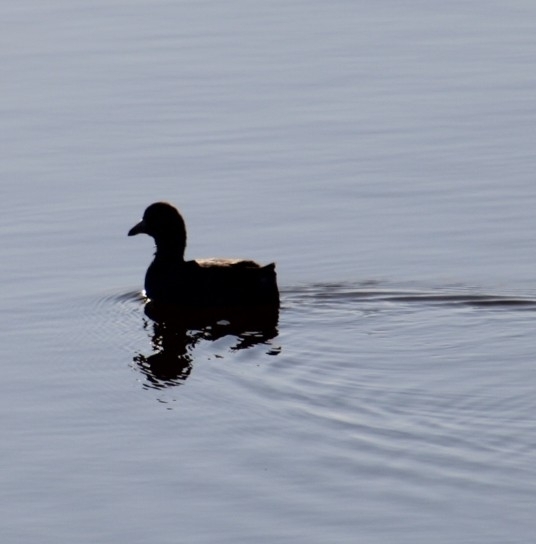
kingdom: Animalia
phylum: Chordata
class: Aves
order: Gruiformes
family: Rallidae
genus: Fulica
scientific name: Fulica americana
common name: American coot
